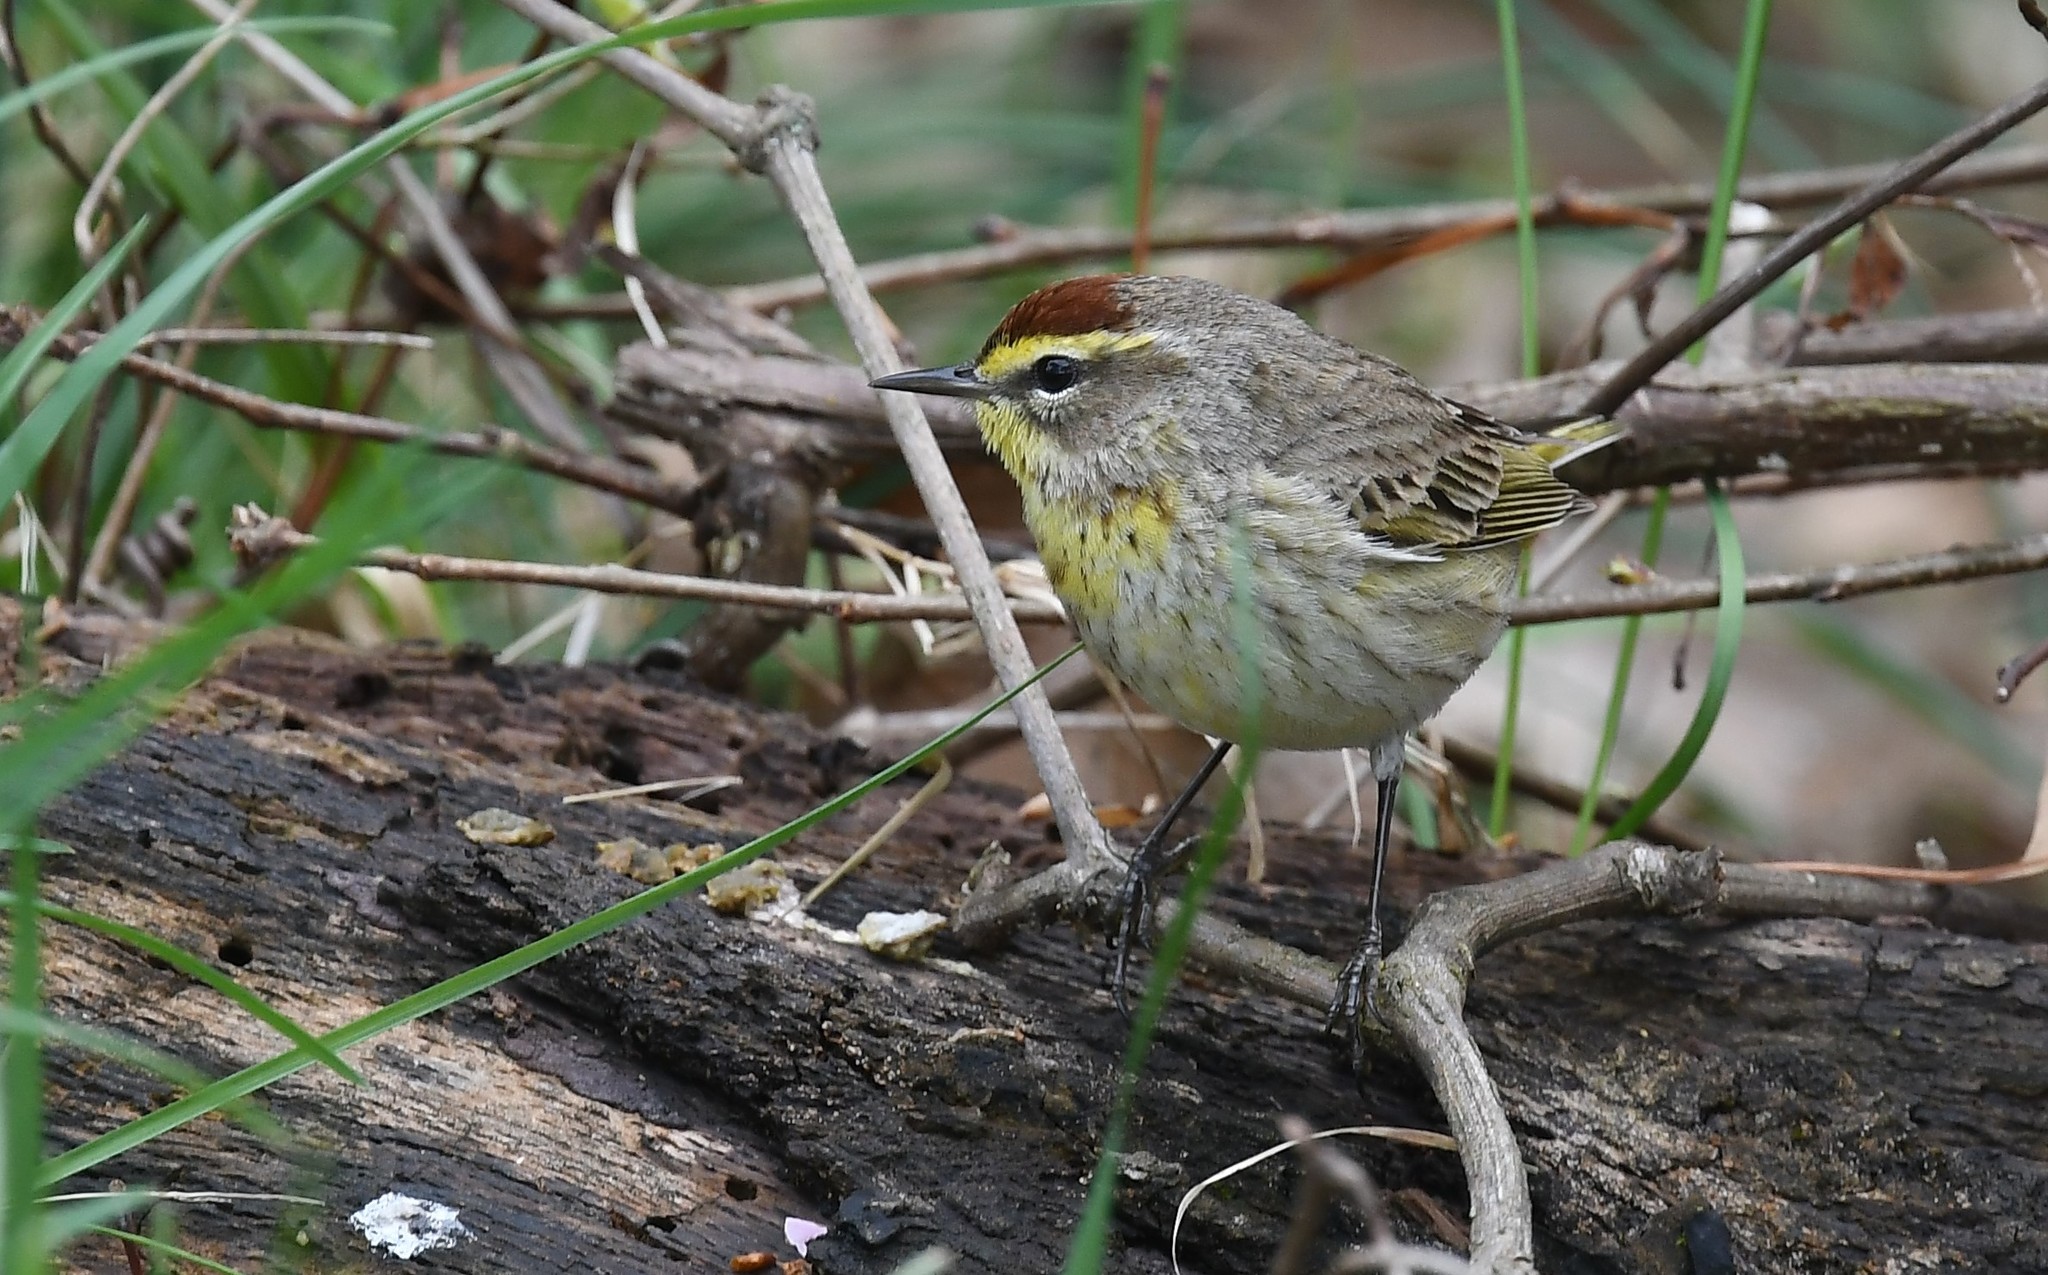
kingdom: Animalia
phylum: Chordata
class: Aves
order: Passeriformes
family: Parulidae
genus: Setophaga
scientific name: Setophaga palmarum
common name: Palm warbler
